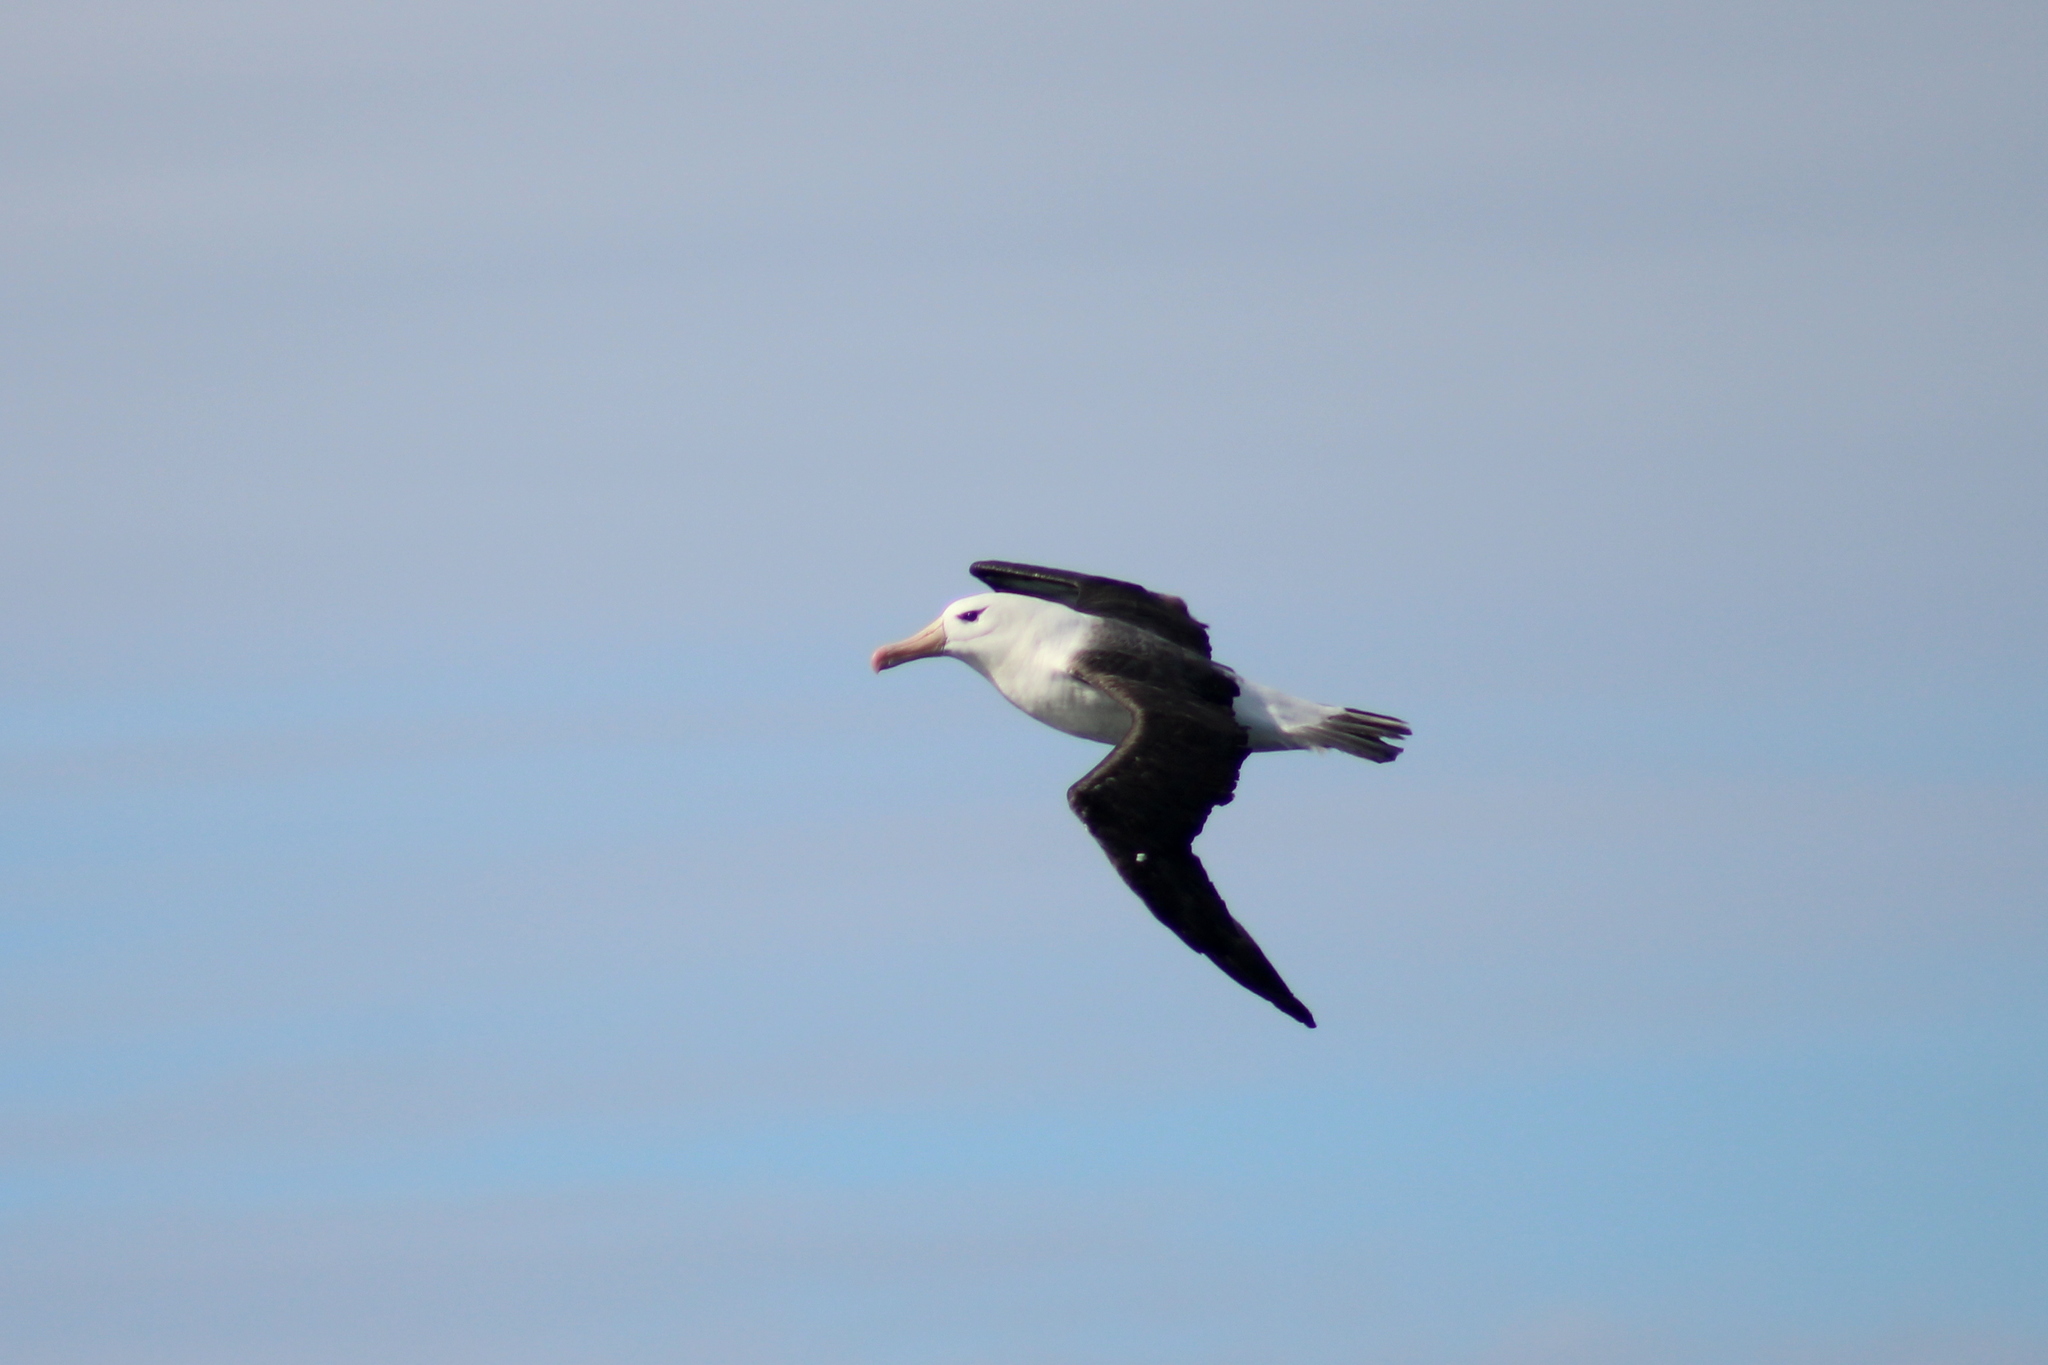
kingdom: Animalia
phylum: Chordata
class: Aves
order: Procellariiformes
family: Diomedeidae
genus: Thalassarche
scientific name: Thalassarche melanophris
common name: Black-browed albatross
